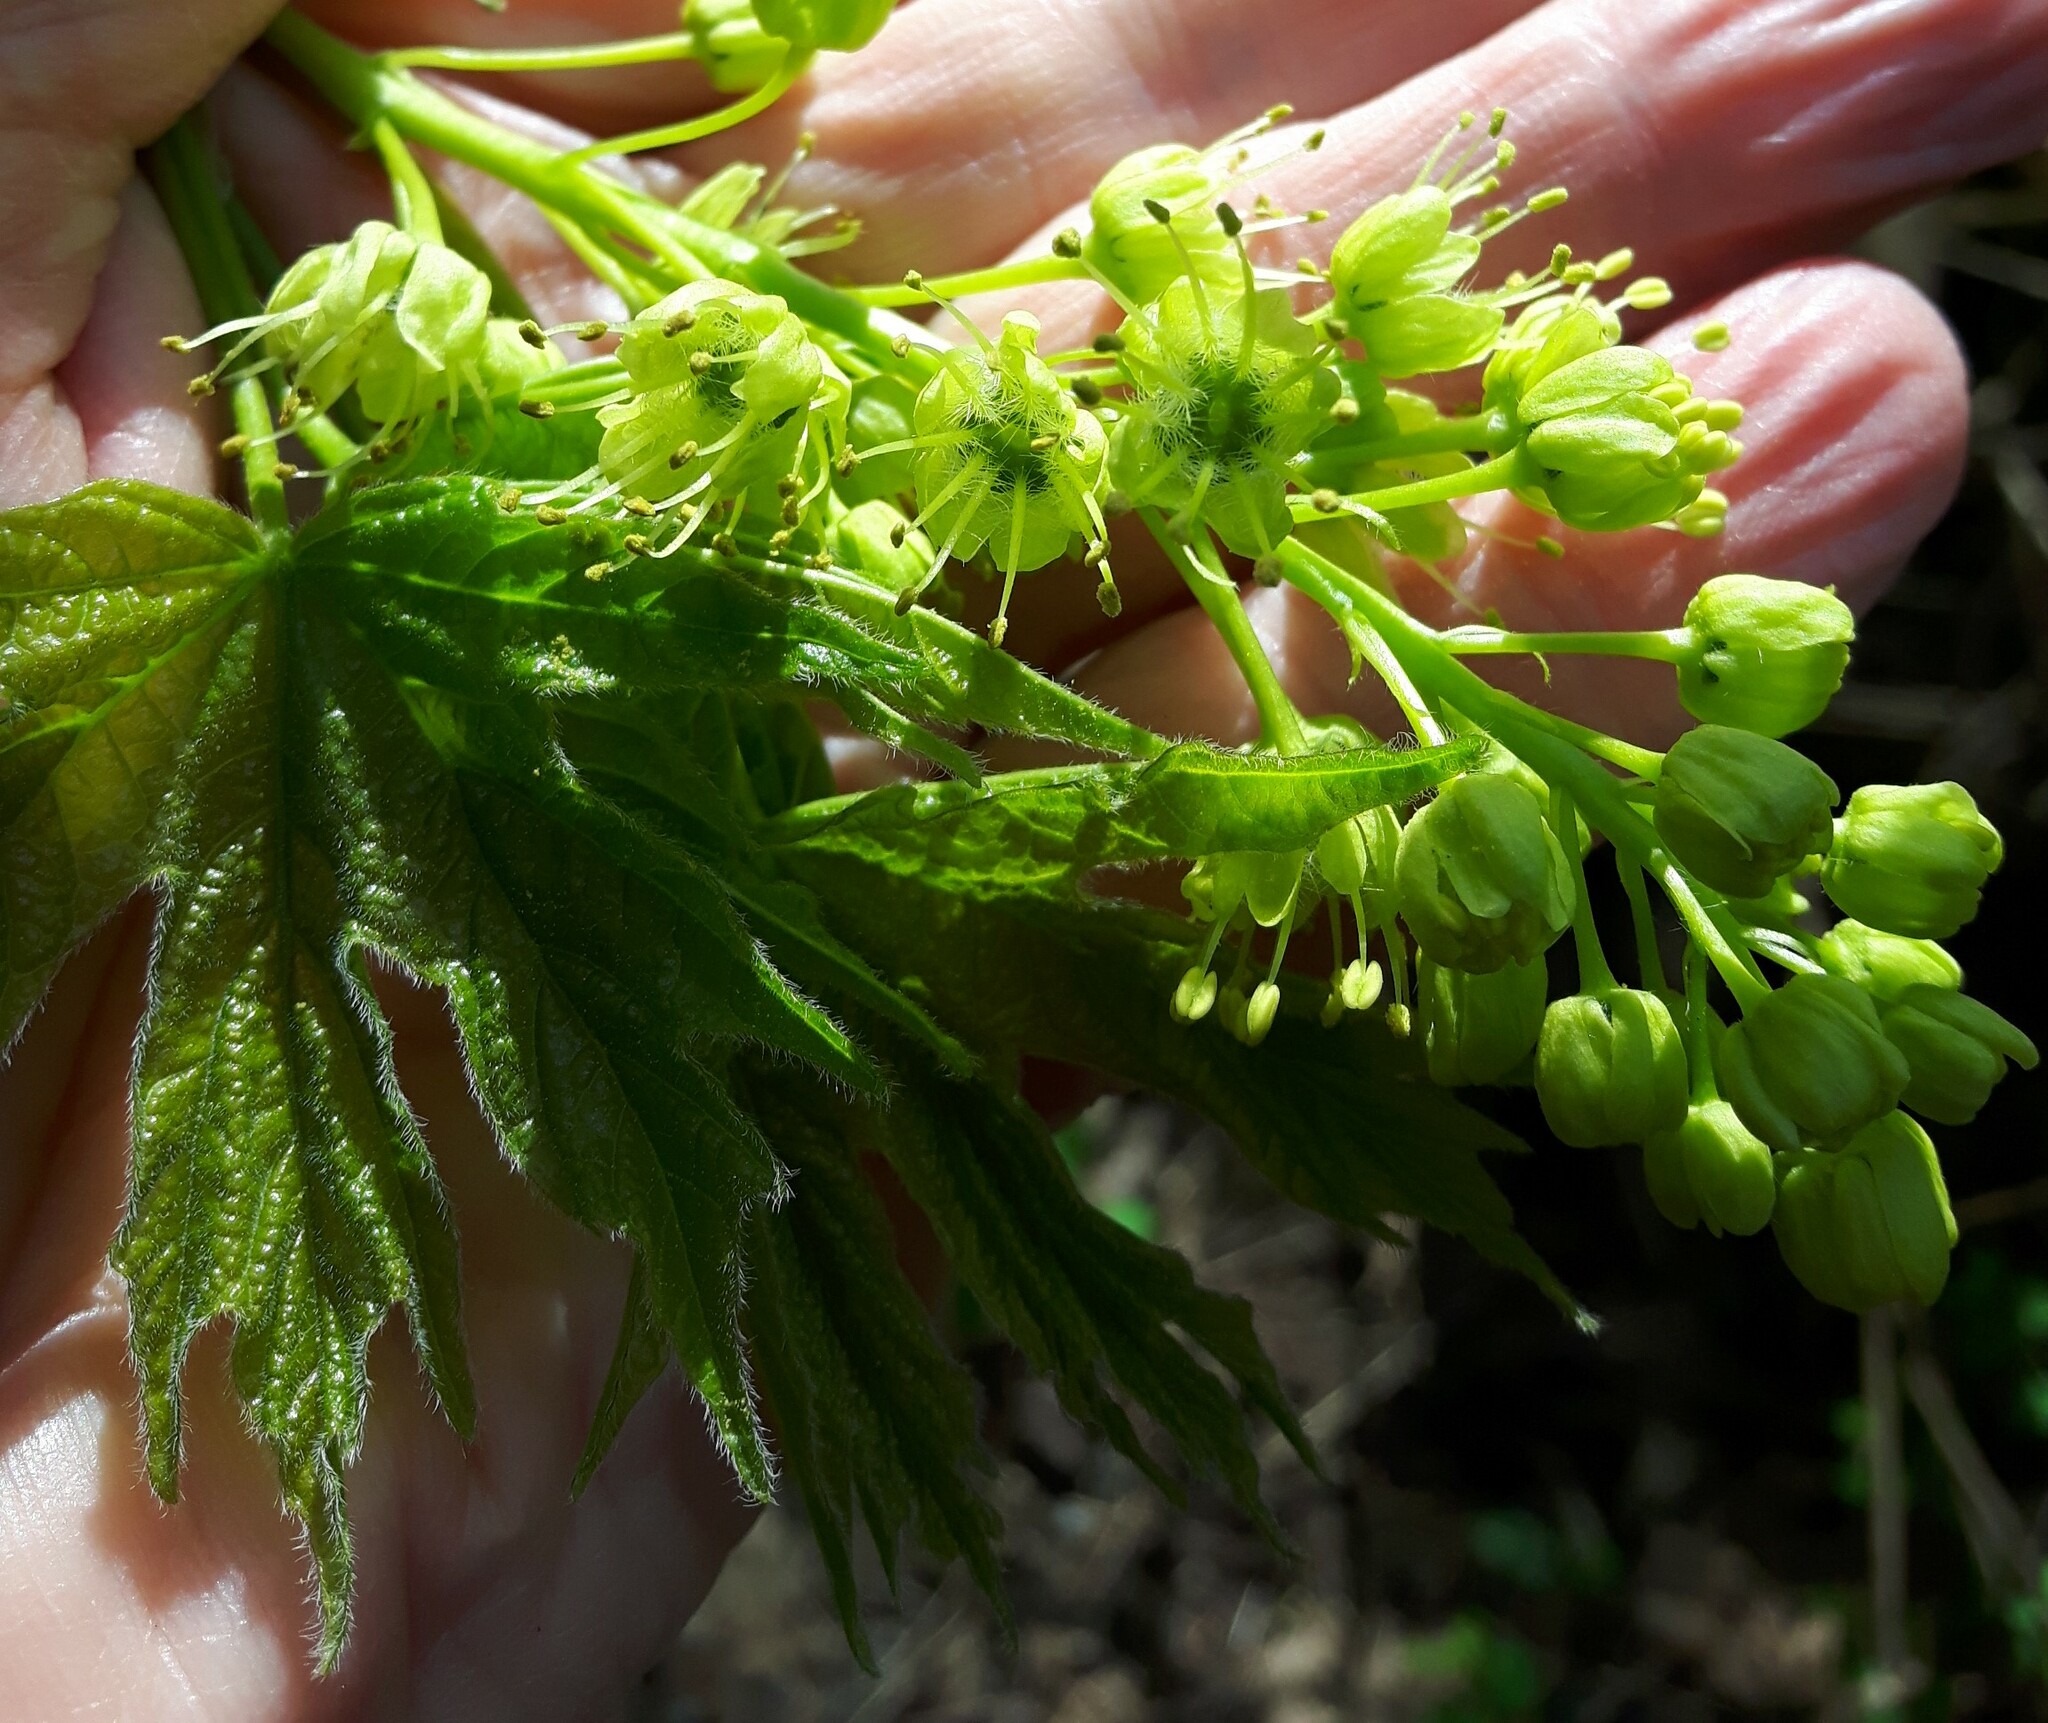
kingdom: Plantae
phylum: Tracheophyta
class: Magnoliopsida
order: Sapindales
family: Sapindaceae
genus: Acer
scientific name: Acer macrophyllum
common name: Oregon maple
